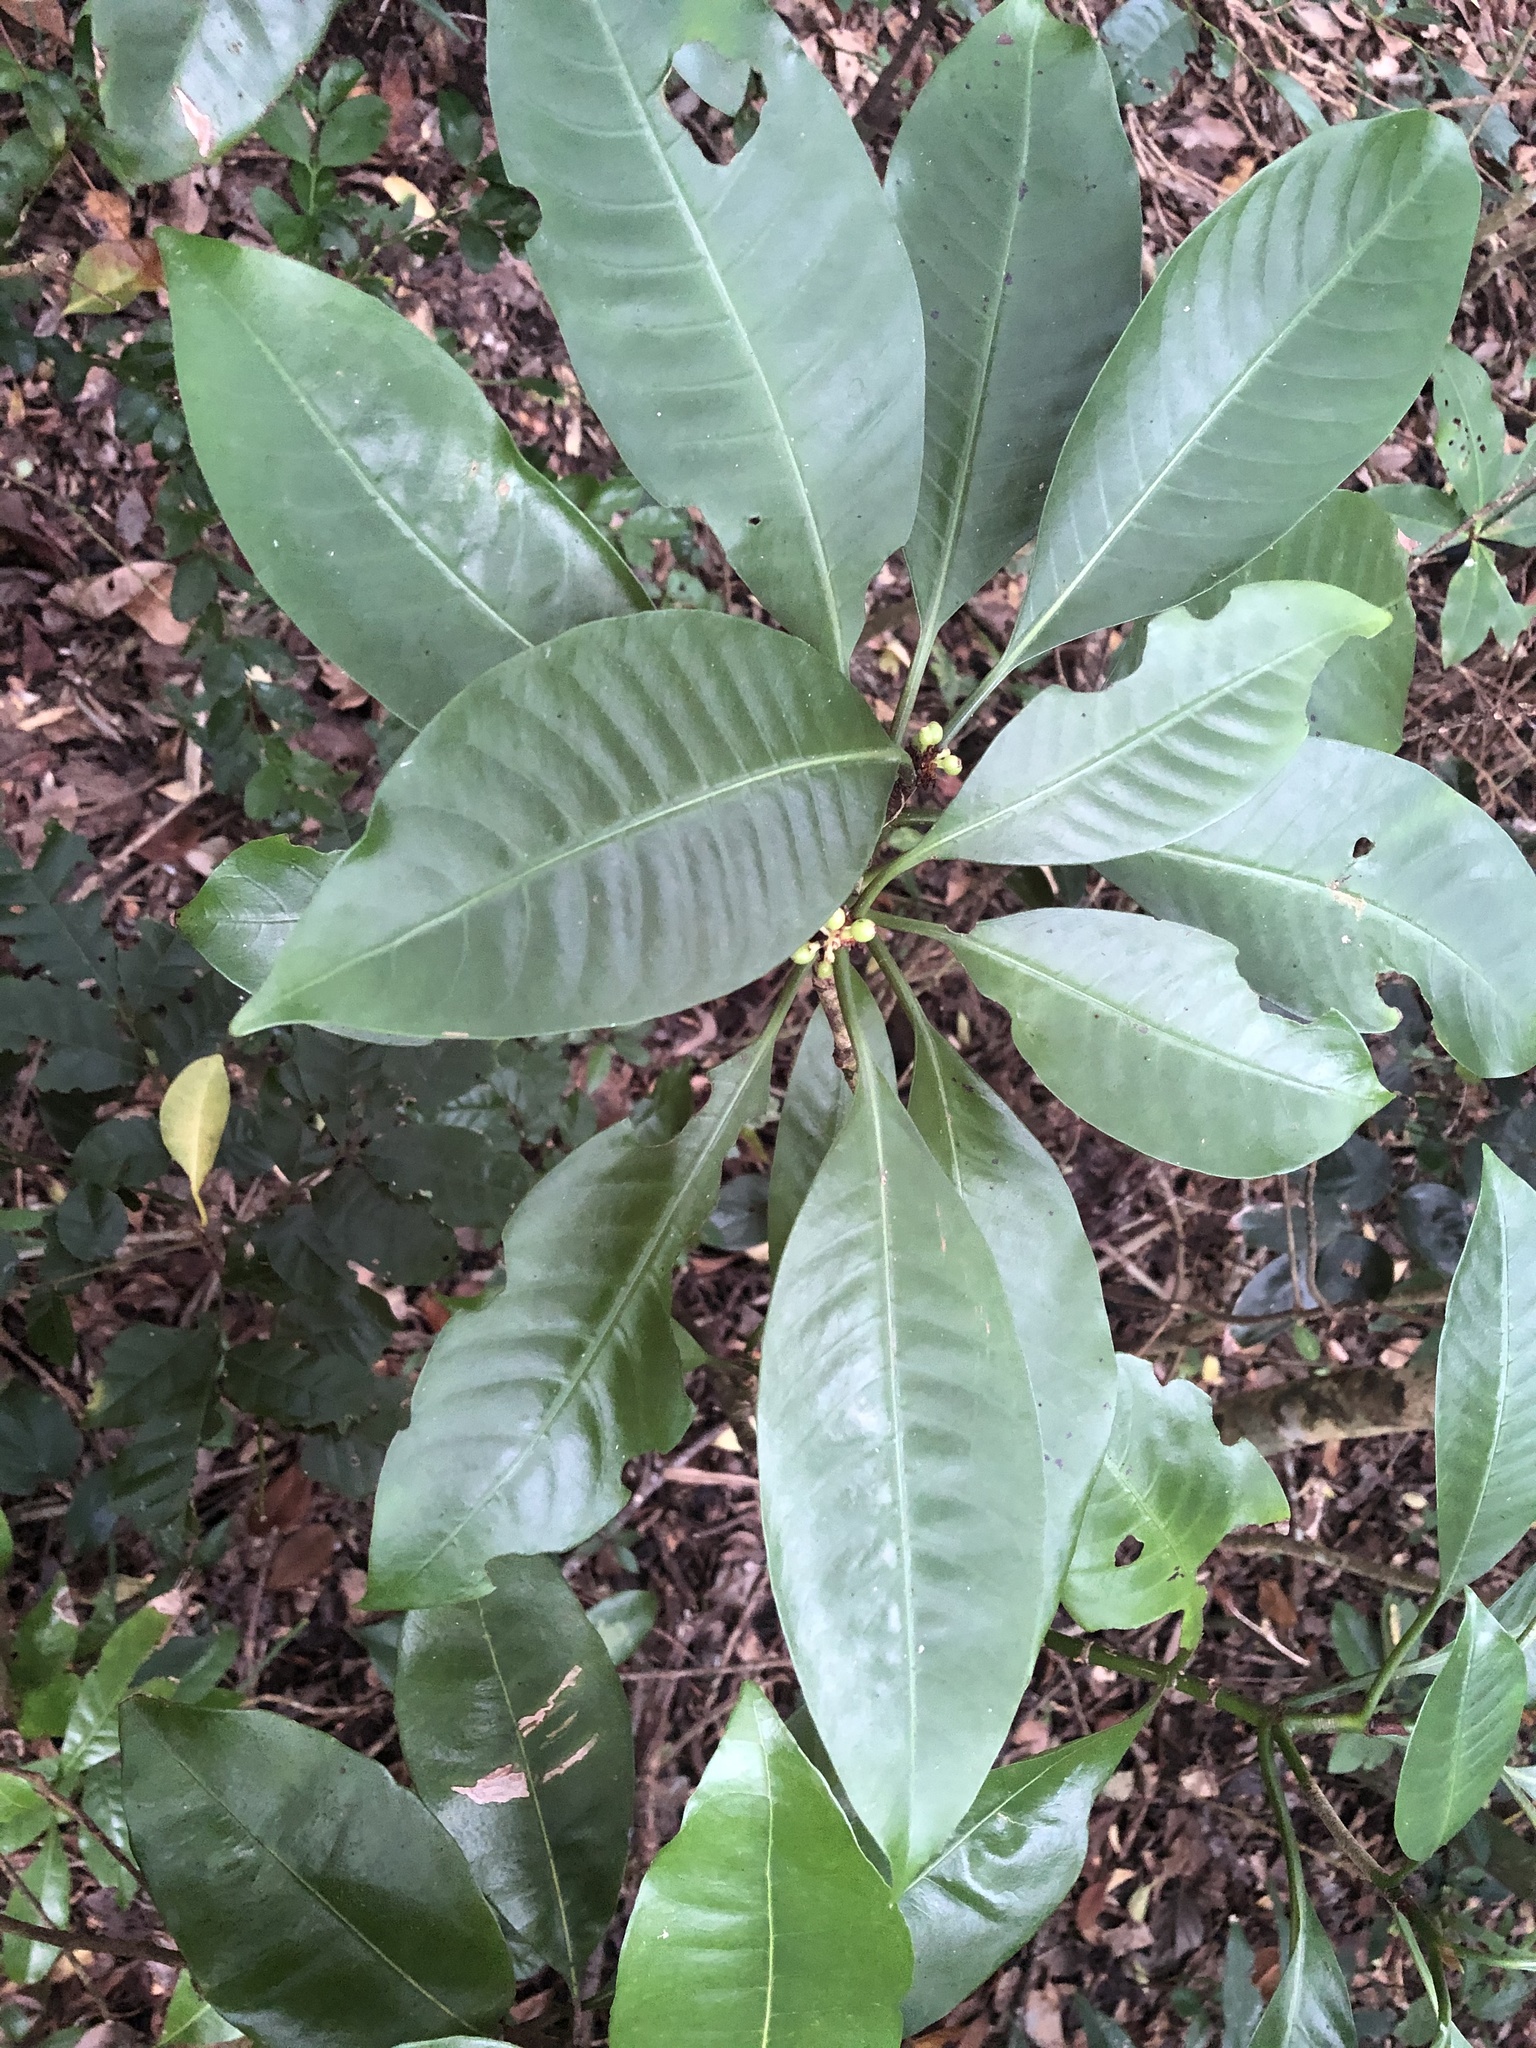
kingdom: Plantae
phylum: Tracheophyta
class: Magnoliopsida
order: Gentianales
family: Rubiaceae
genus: Psychotria
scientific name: Psychotria cephalophora
